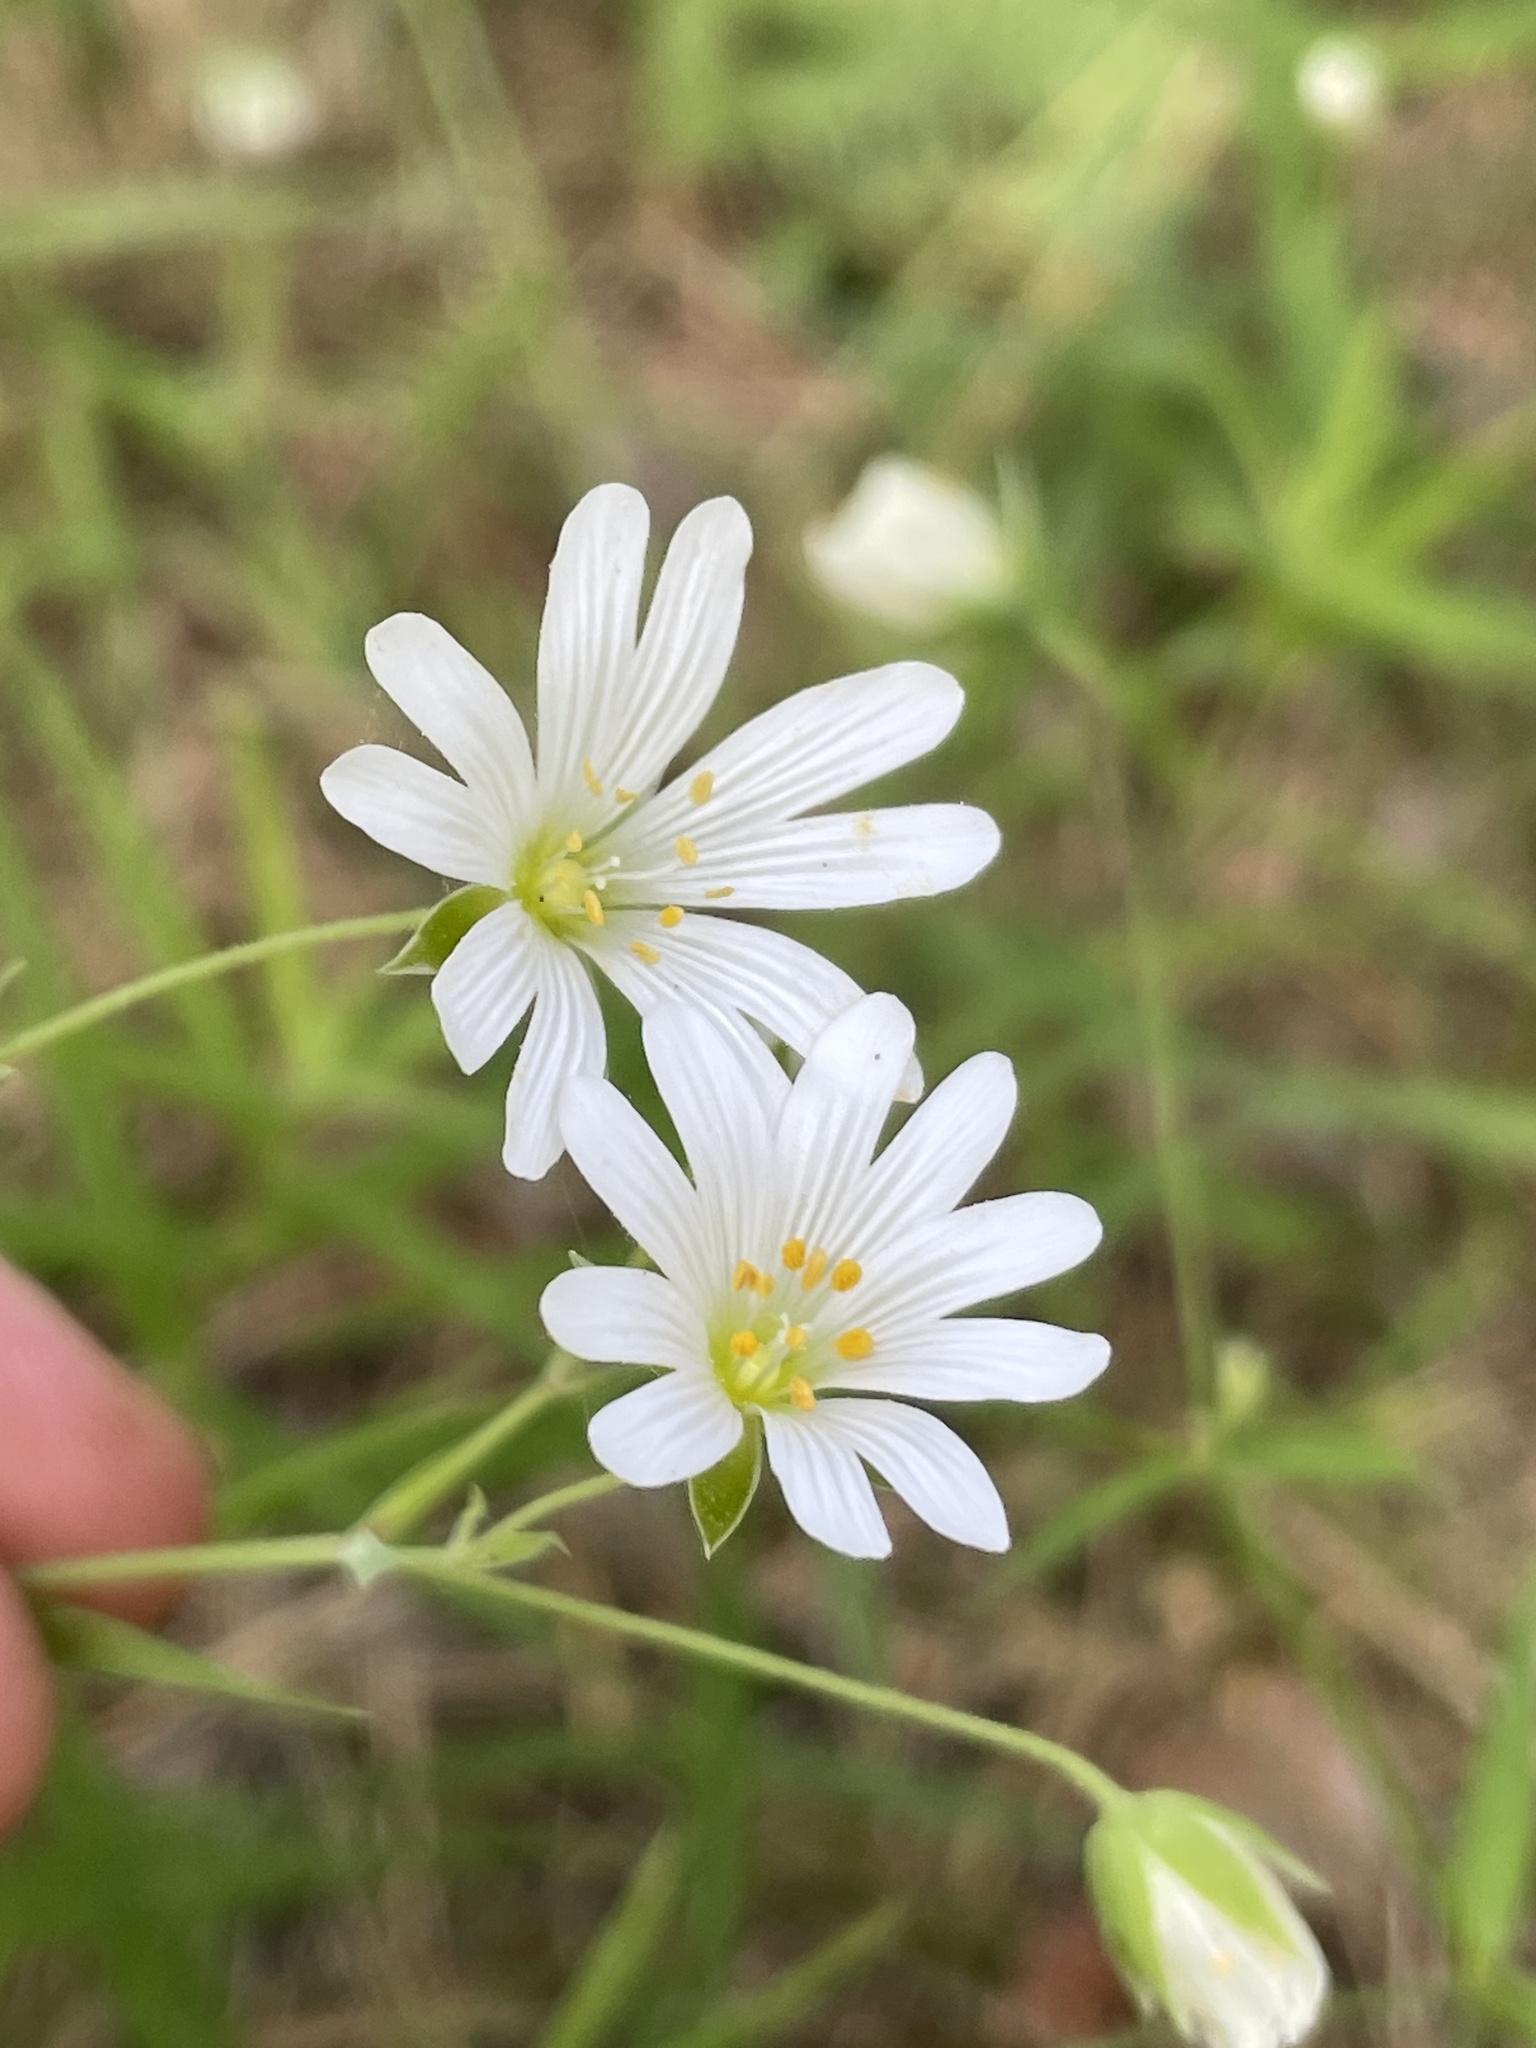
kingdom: Plantae
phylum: Tracheophyta
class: Magnoliopsida
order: Caryophyllales
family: Caryophyllaceae
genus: Rabelera
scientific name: Rabelera holostea
